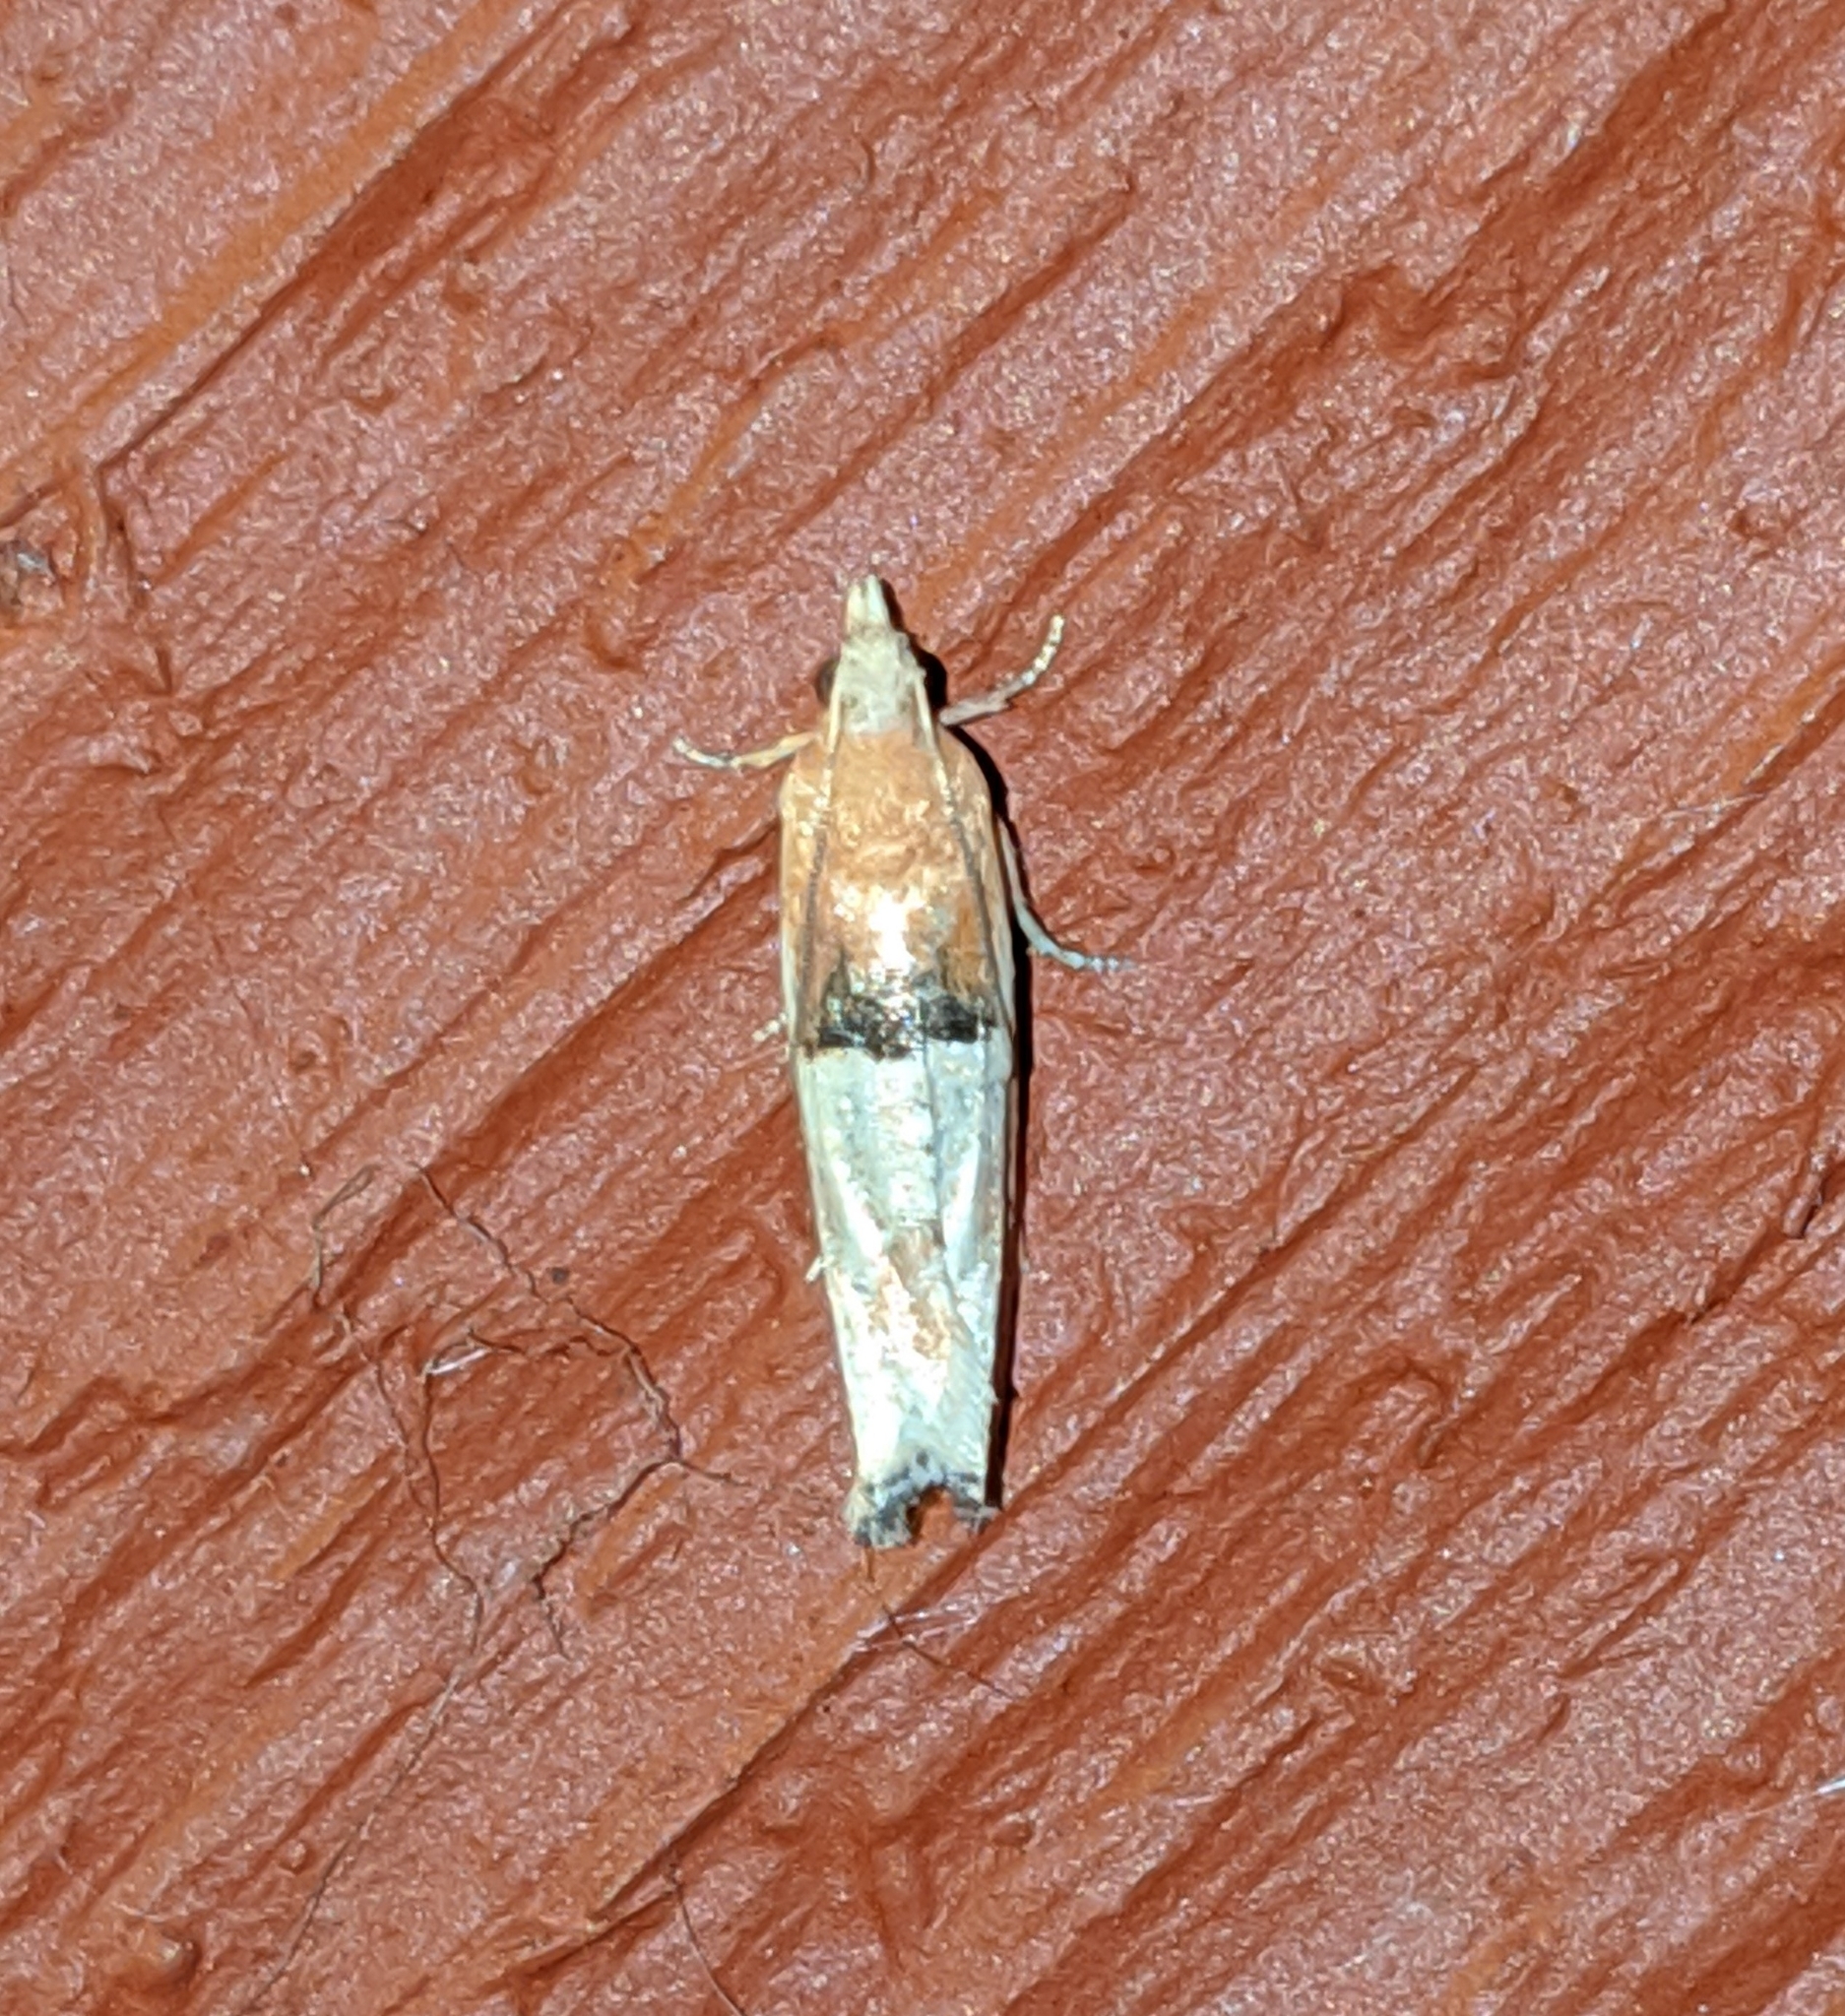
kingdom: Animalia
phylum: Arthropoda
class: Insecta
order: Lepidoptera
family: Tortricidae
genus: Epinotia
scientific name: Epinotia johnsonana
